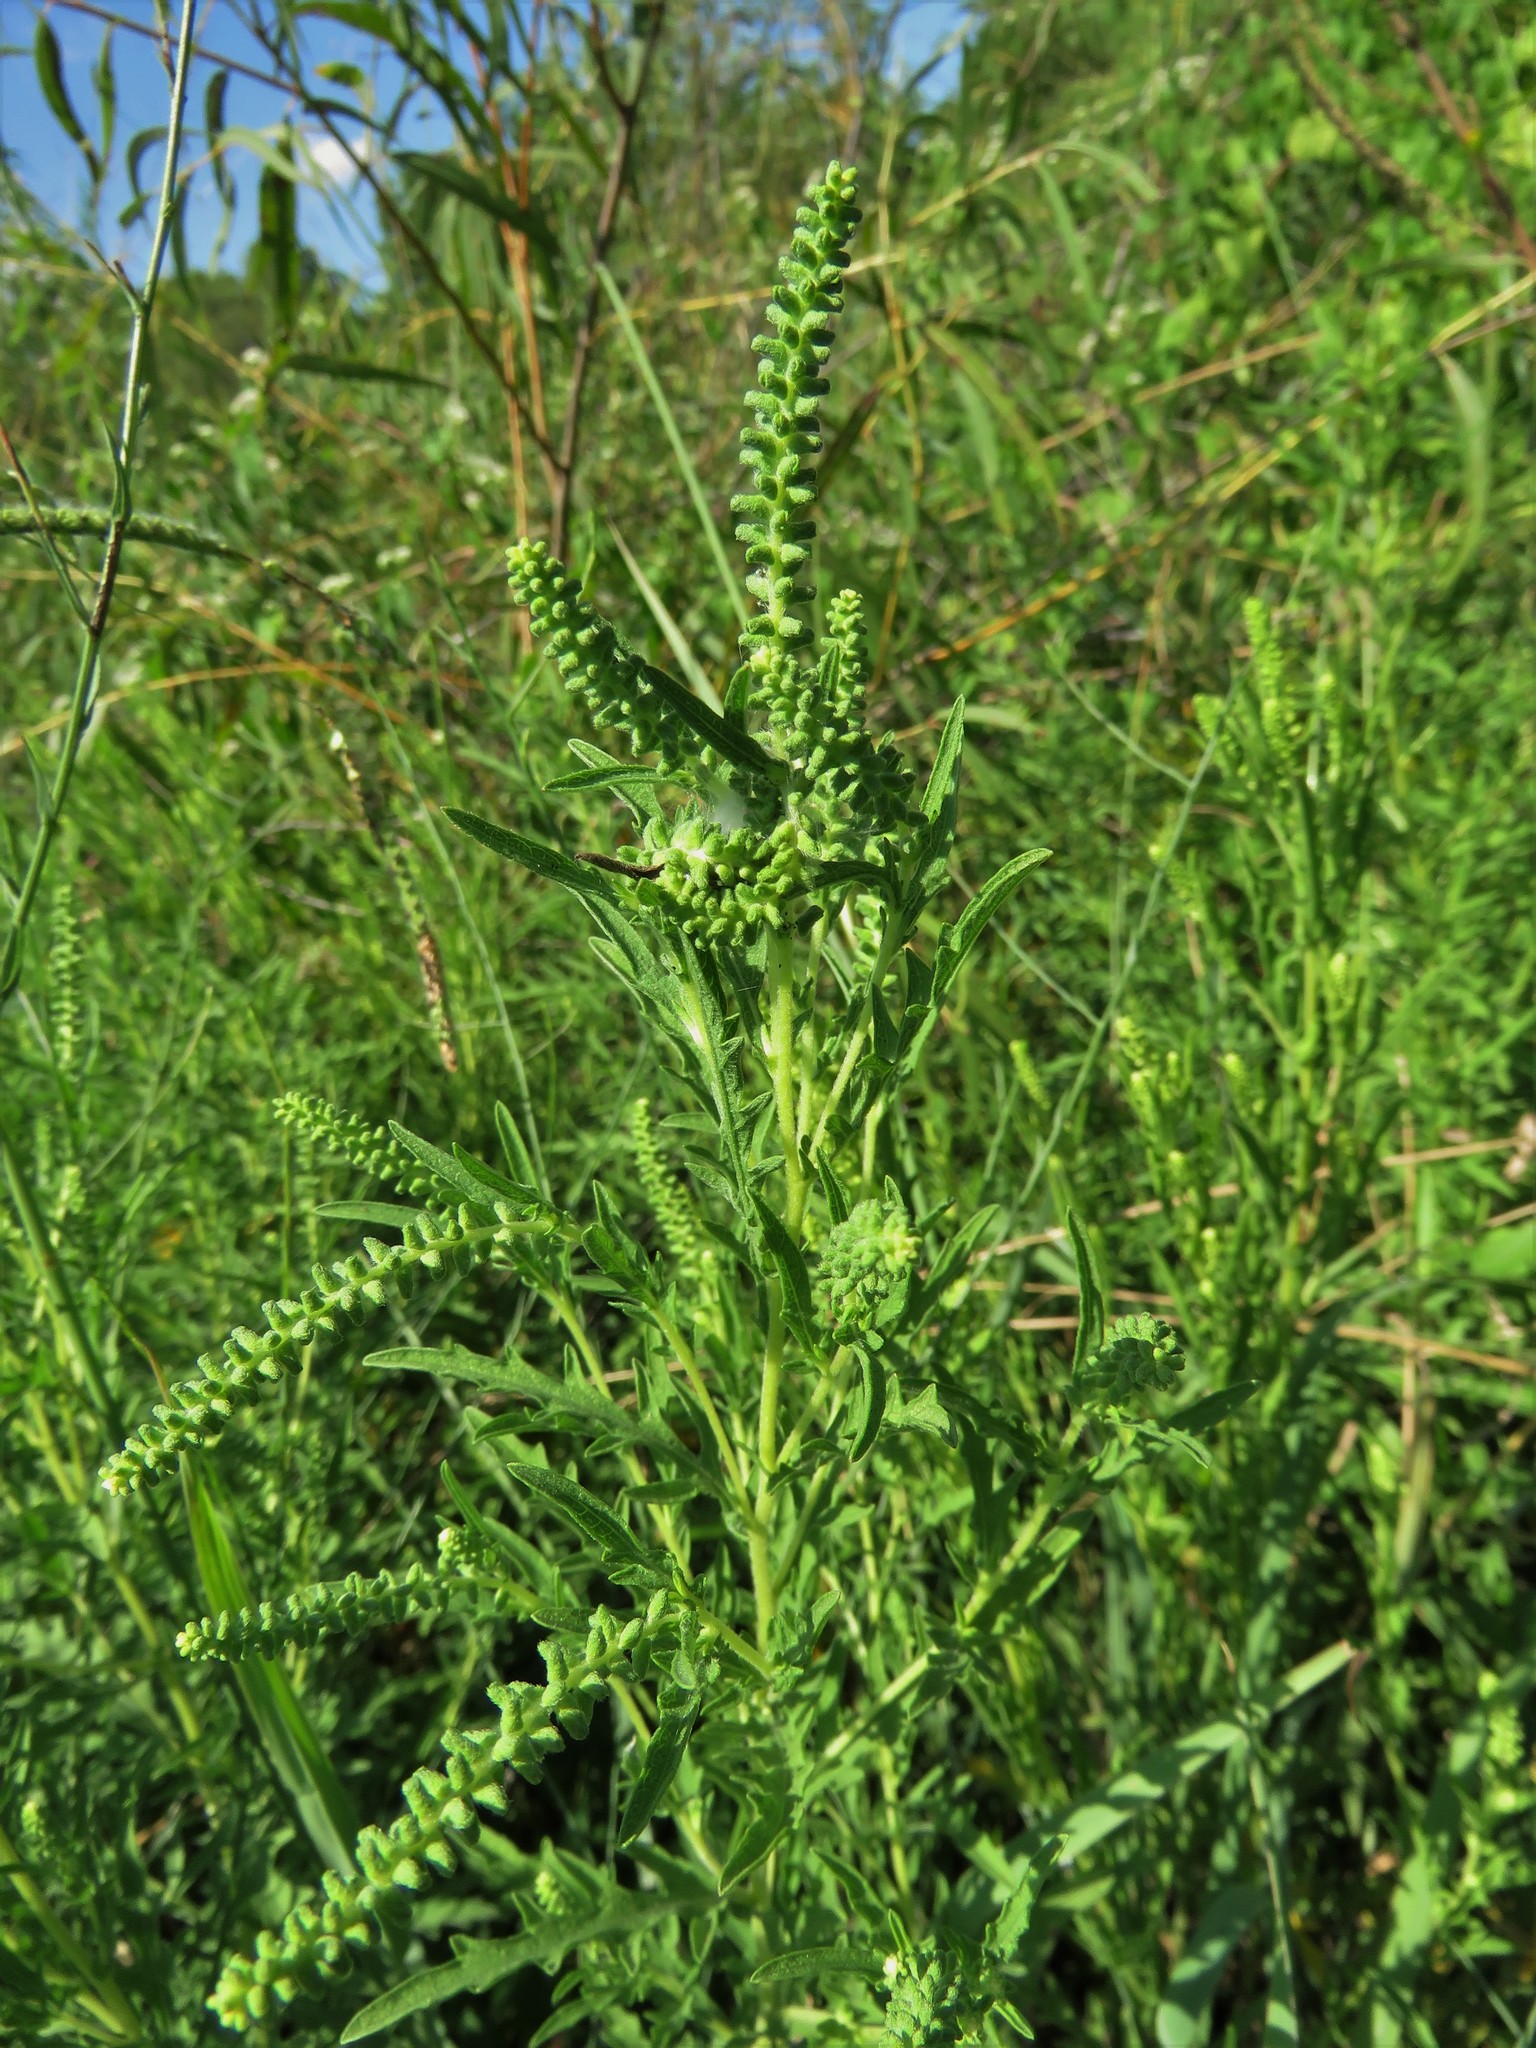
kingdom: Plantae
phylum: Tracheophyta
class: Magnoliopsida
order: Asterales
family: Asteraceae
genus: Ambrosia
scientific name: Ambrosia psilostachya
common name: Perennial ragweed
